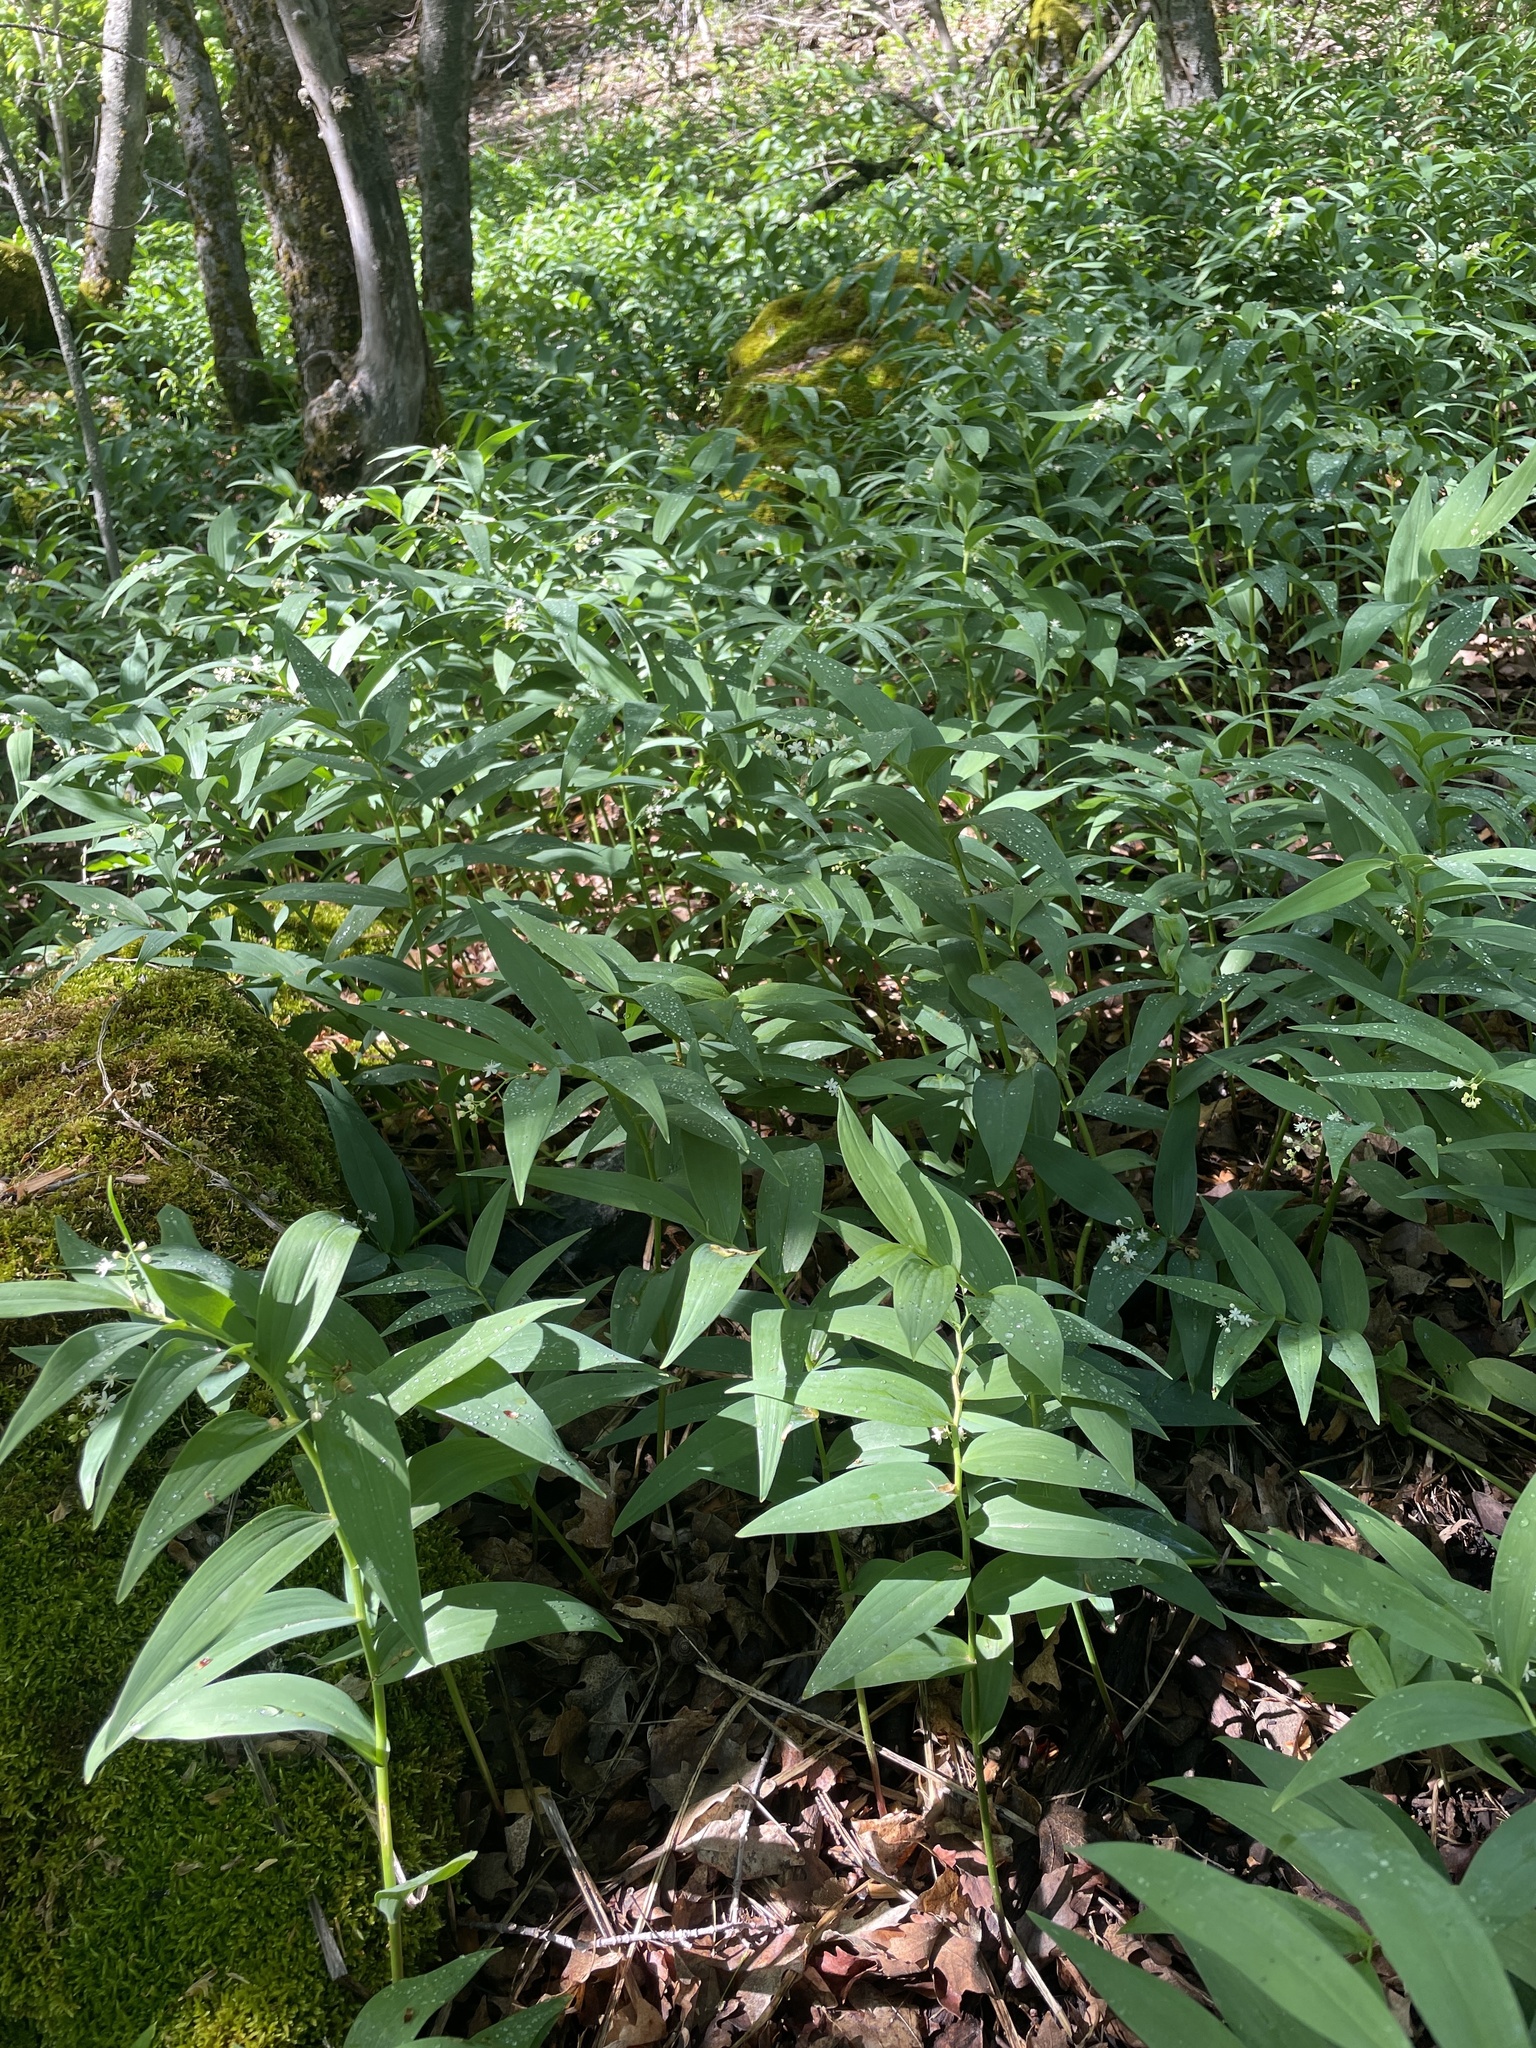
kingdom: Plantae
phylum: Tracheophyta
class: Liliopsida
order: Asparagales
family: Asparagaceae
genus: Maianthemum
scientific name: Maianthemum stellatum
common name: Little false solomon's seal
